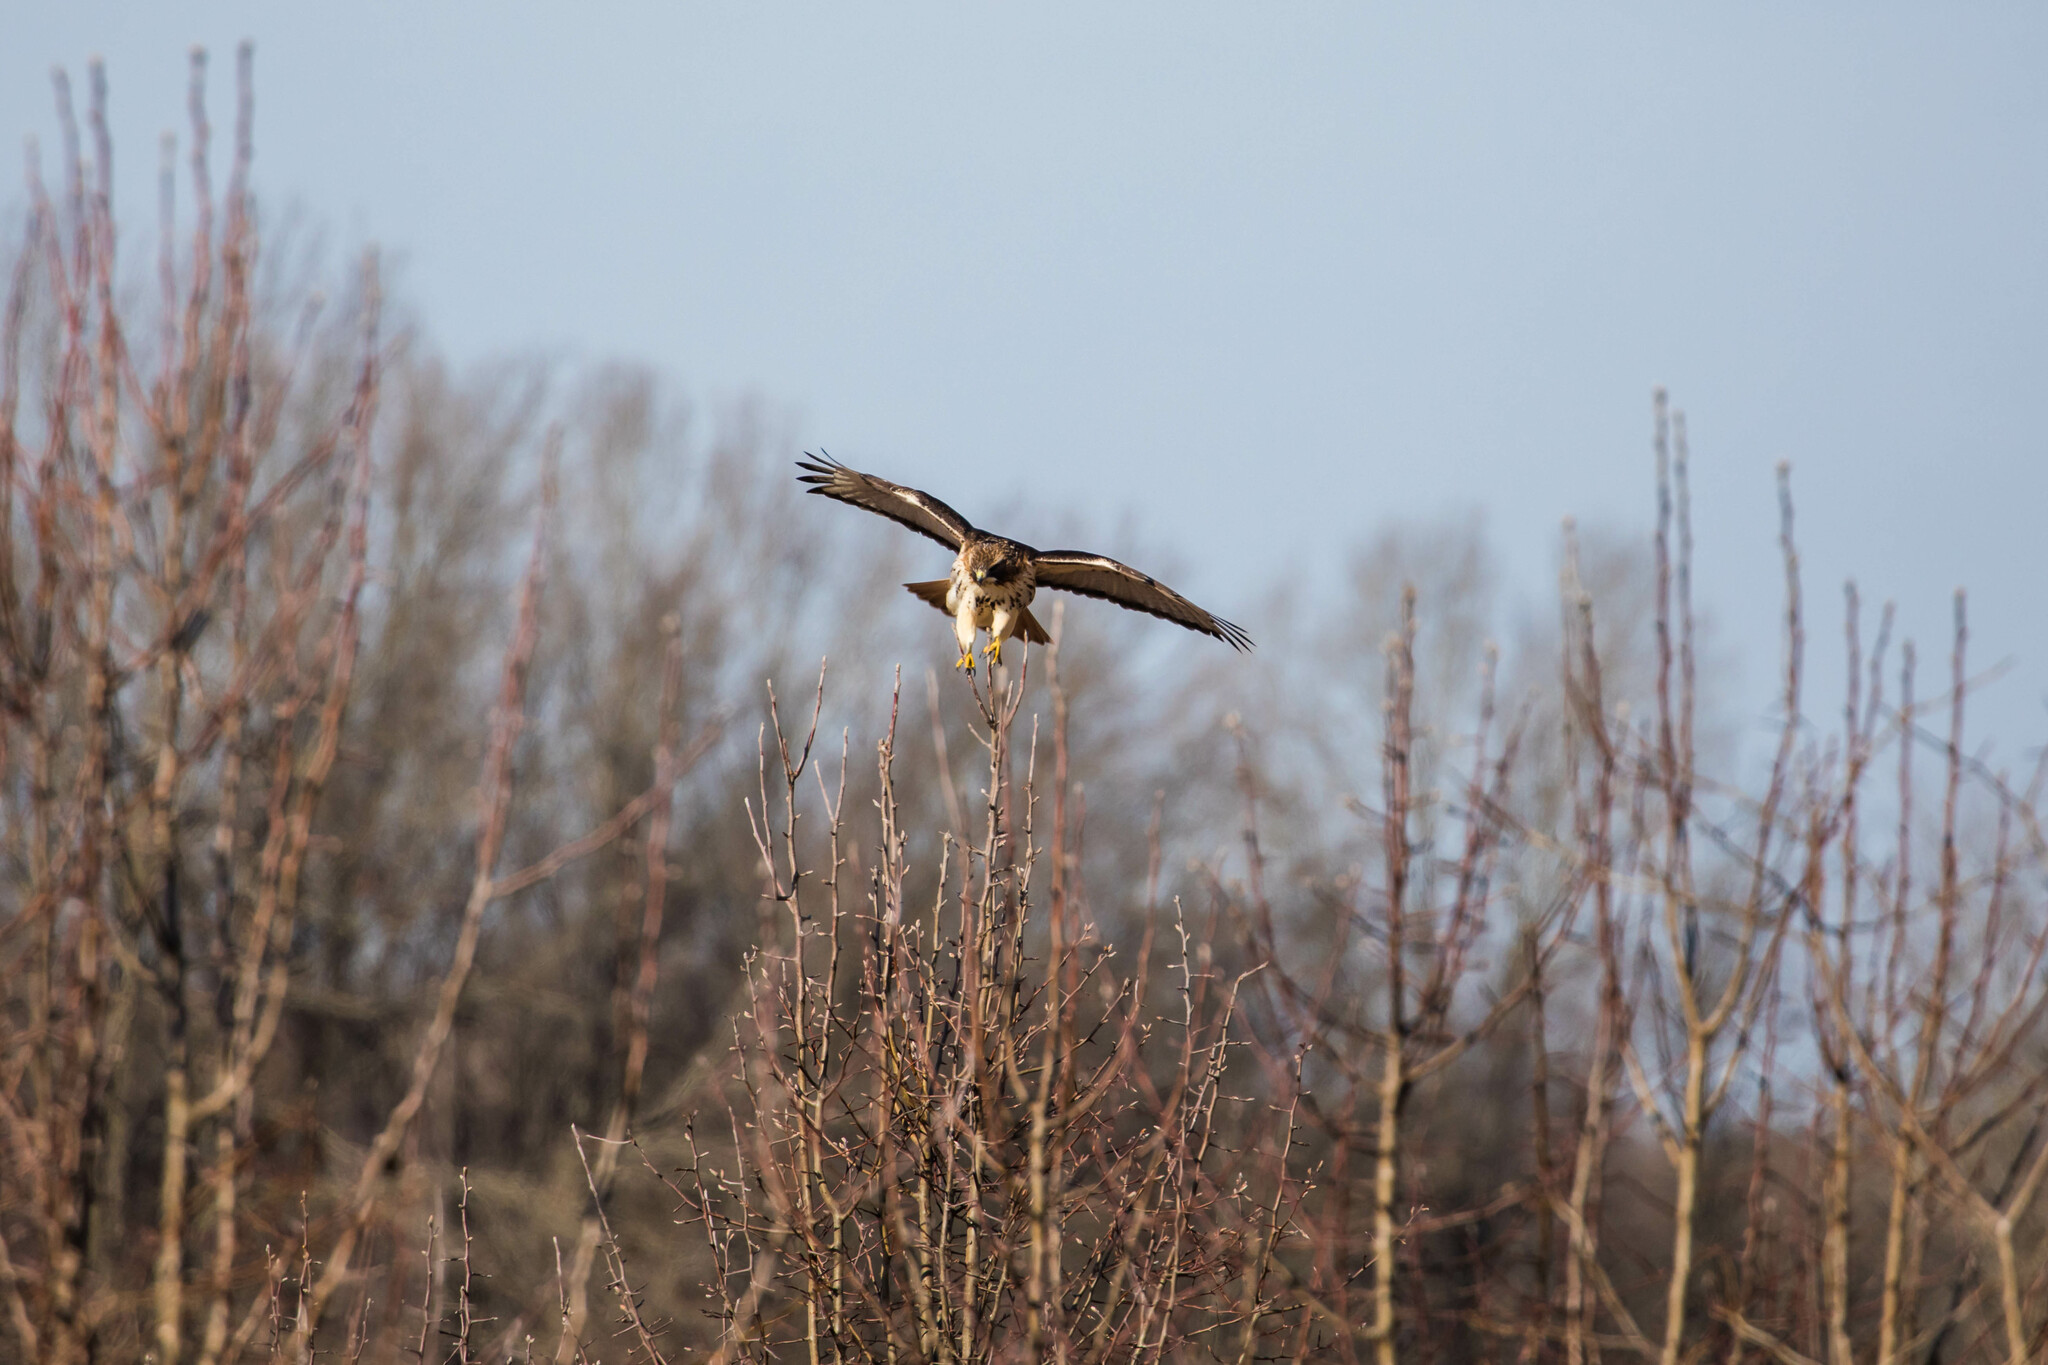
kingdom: Animalia
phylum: Chordata
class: Aves
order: Accipitriformes
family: Accipitridae
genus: Buteo
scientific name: Buteo jamaicensis
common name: Red-tailed hawk
